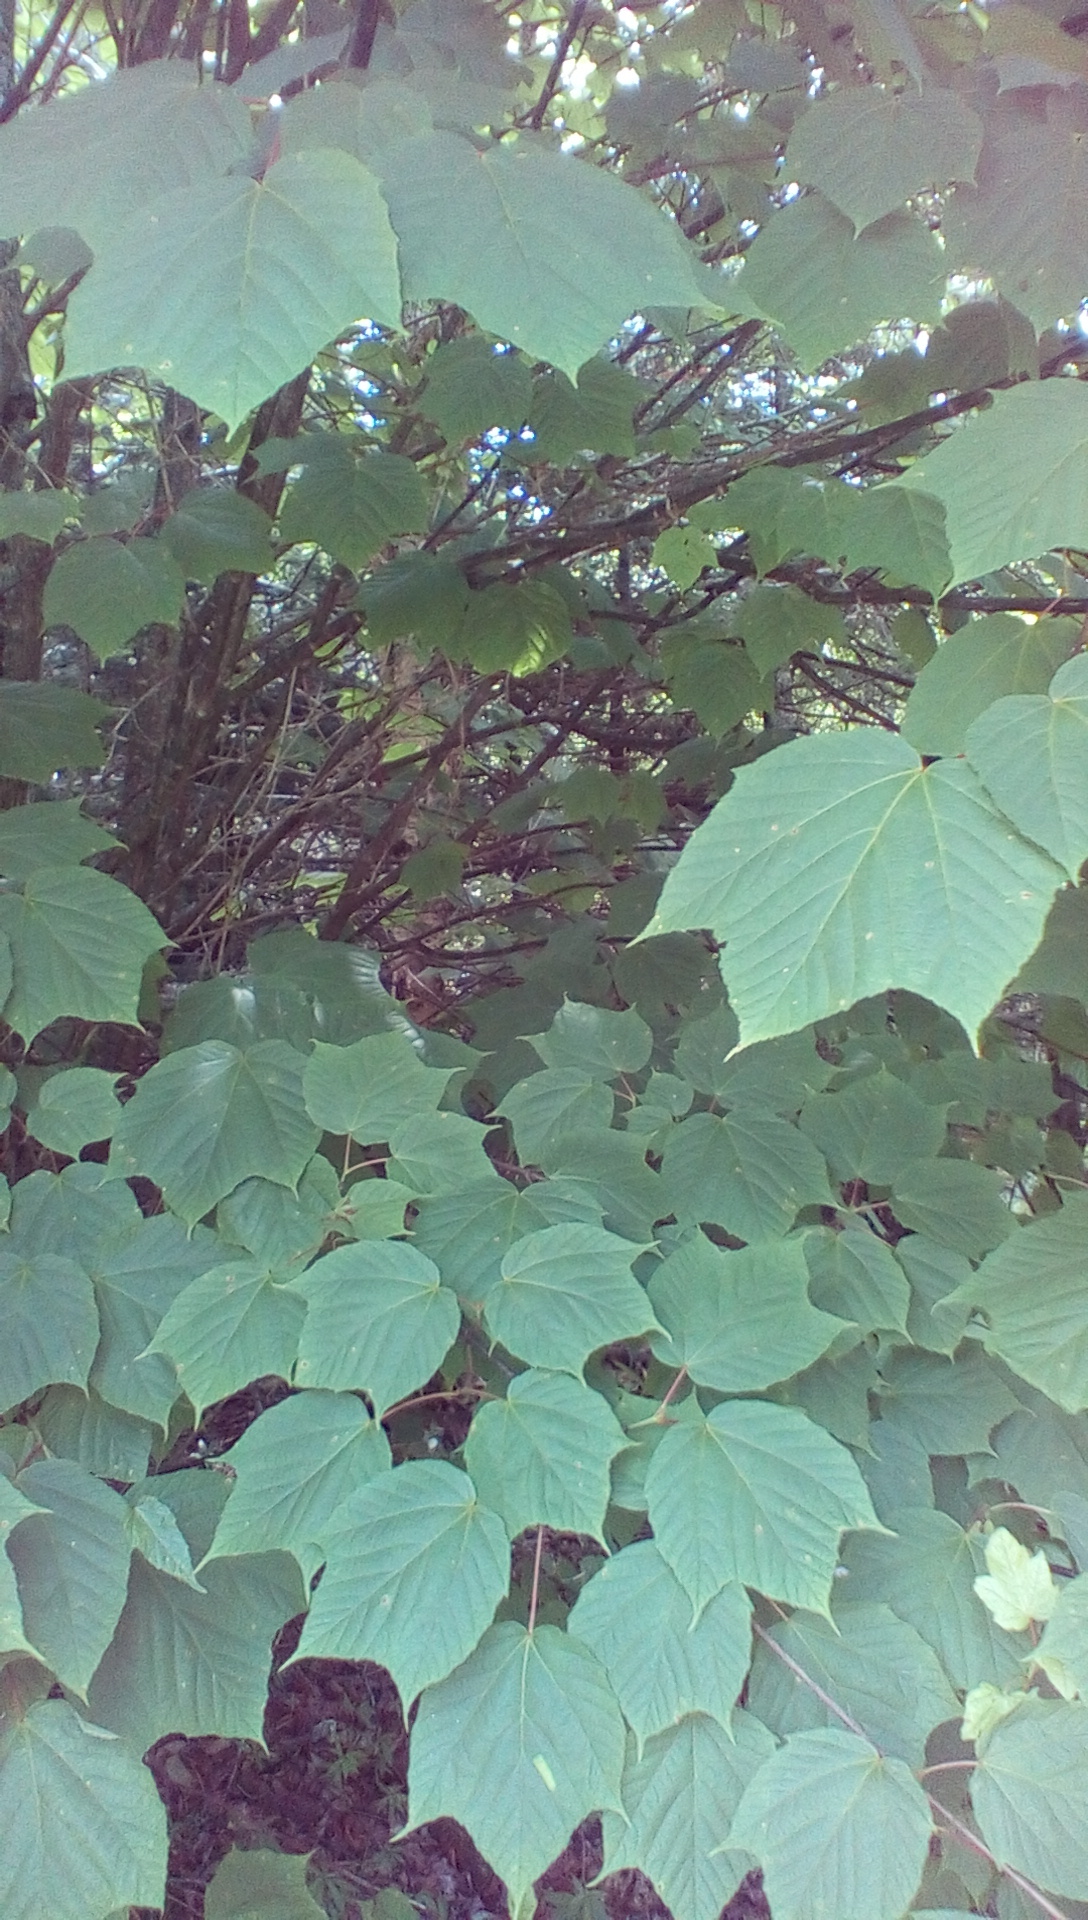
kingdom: Plantae
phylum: Tracheophyta
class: Magnoliopsida
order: Sapindales
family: Sapindaceae
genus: Acer
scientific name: Acer pensylvanicum
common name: Moosewood
